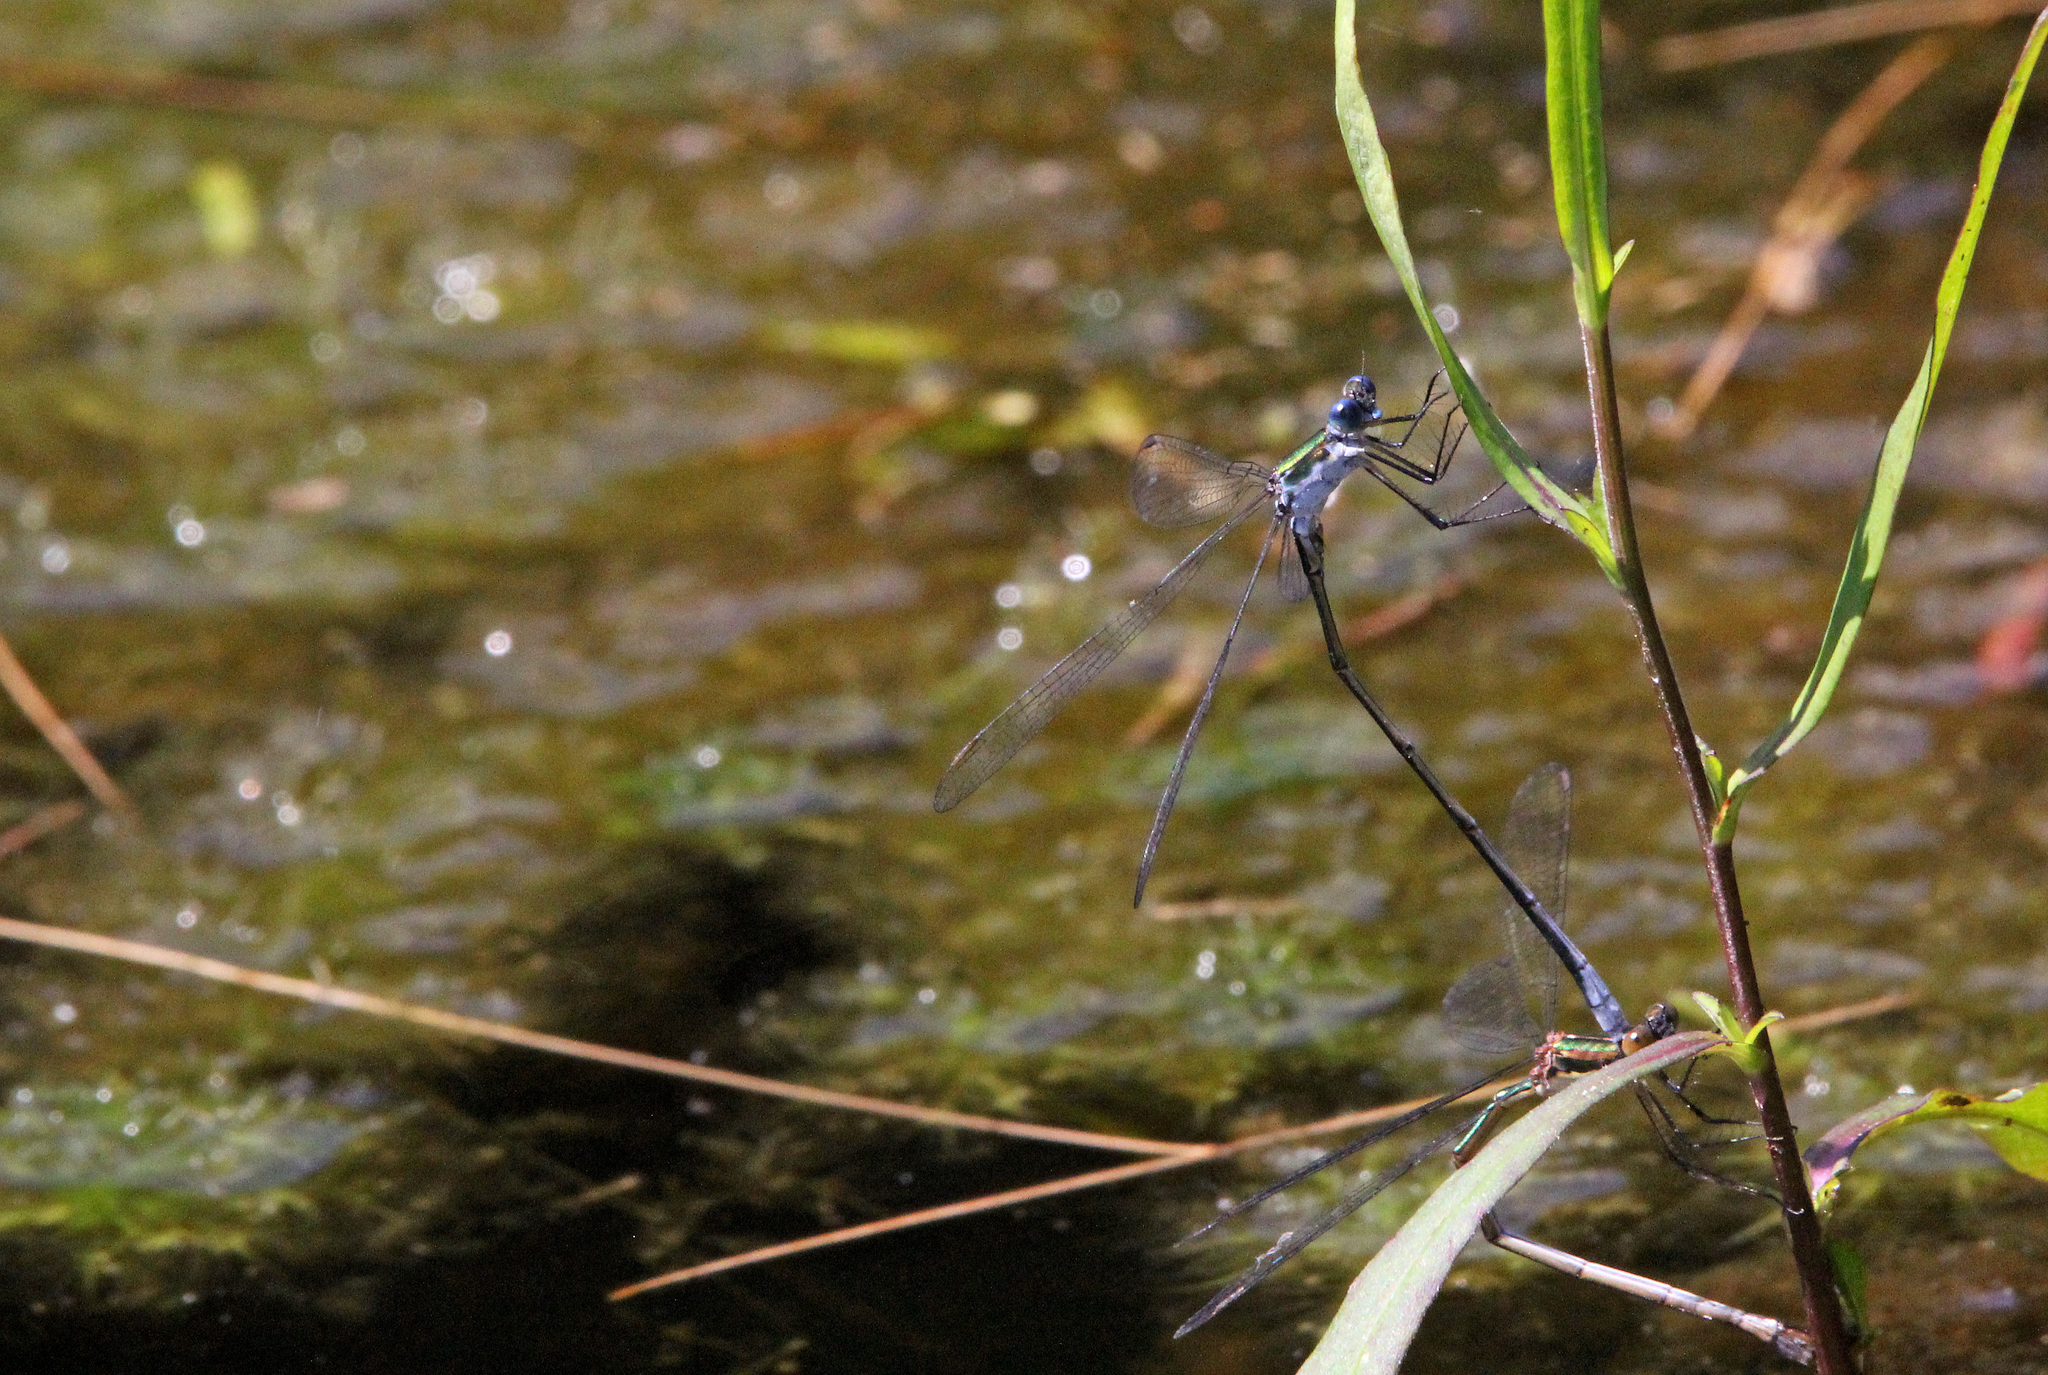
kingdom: Animalia
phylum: Arthropoda
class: Insecta
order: Odonata
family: Lestidae
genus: Lestes
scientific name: Lestes vigilax
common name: Swamp spreadwing
